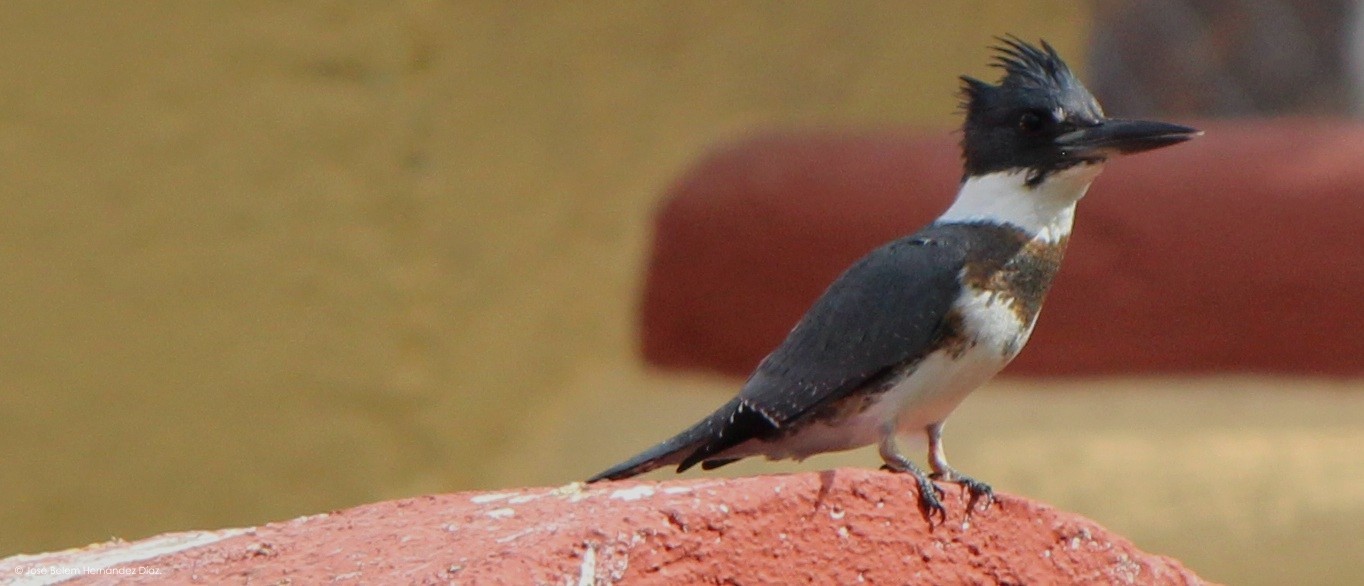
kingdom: Animalia
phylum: Chordata
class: Aves
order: Coraciiformes
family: Alcedinidae
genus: Megaceryle
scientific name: Megaceryle alcyon
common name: Belted kingfisher
